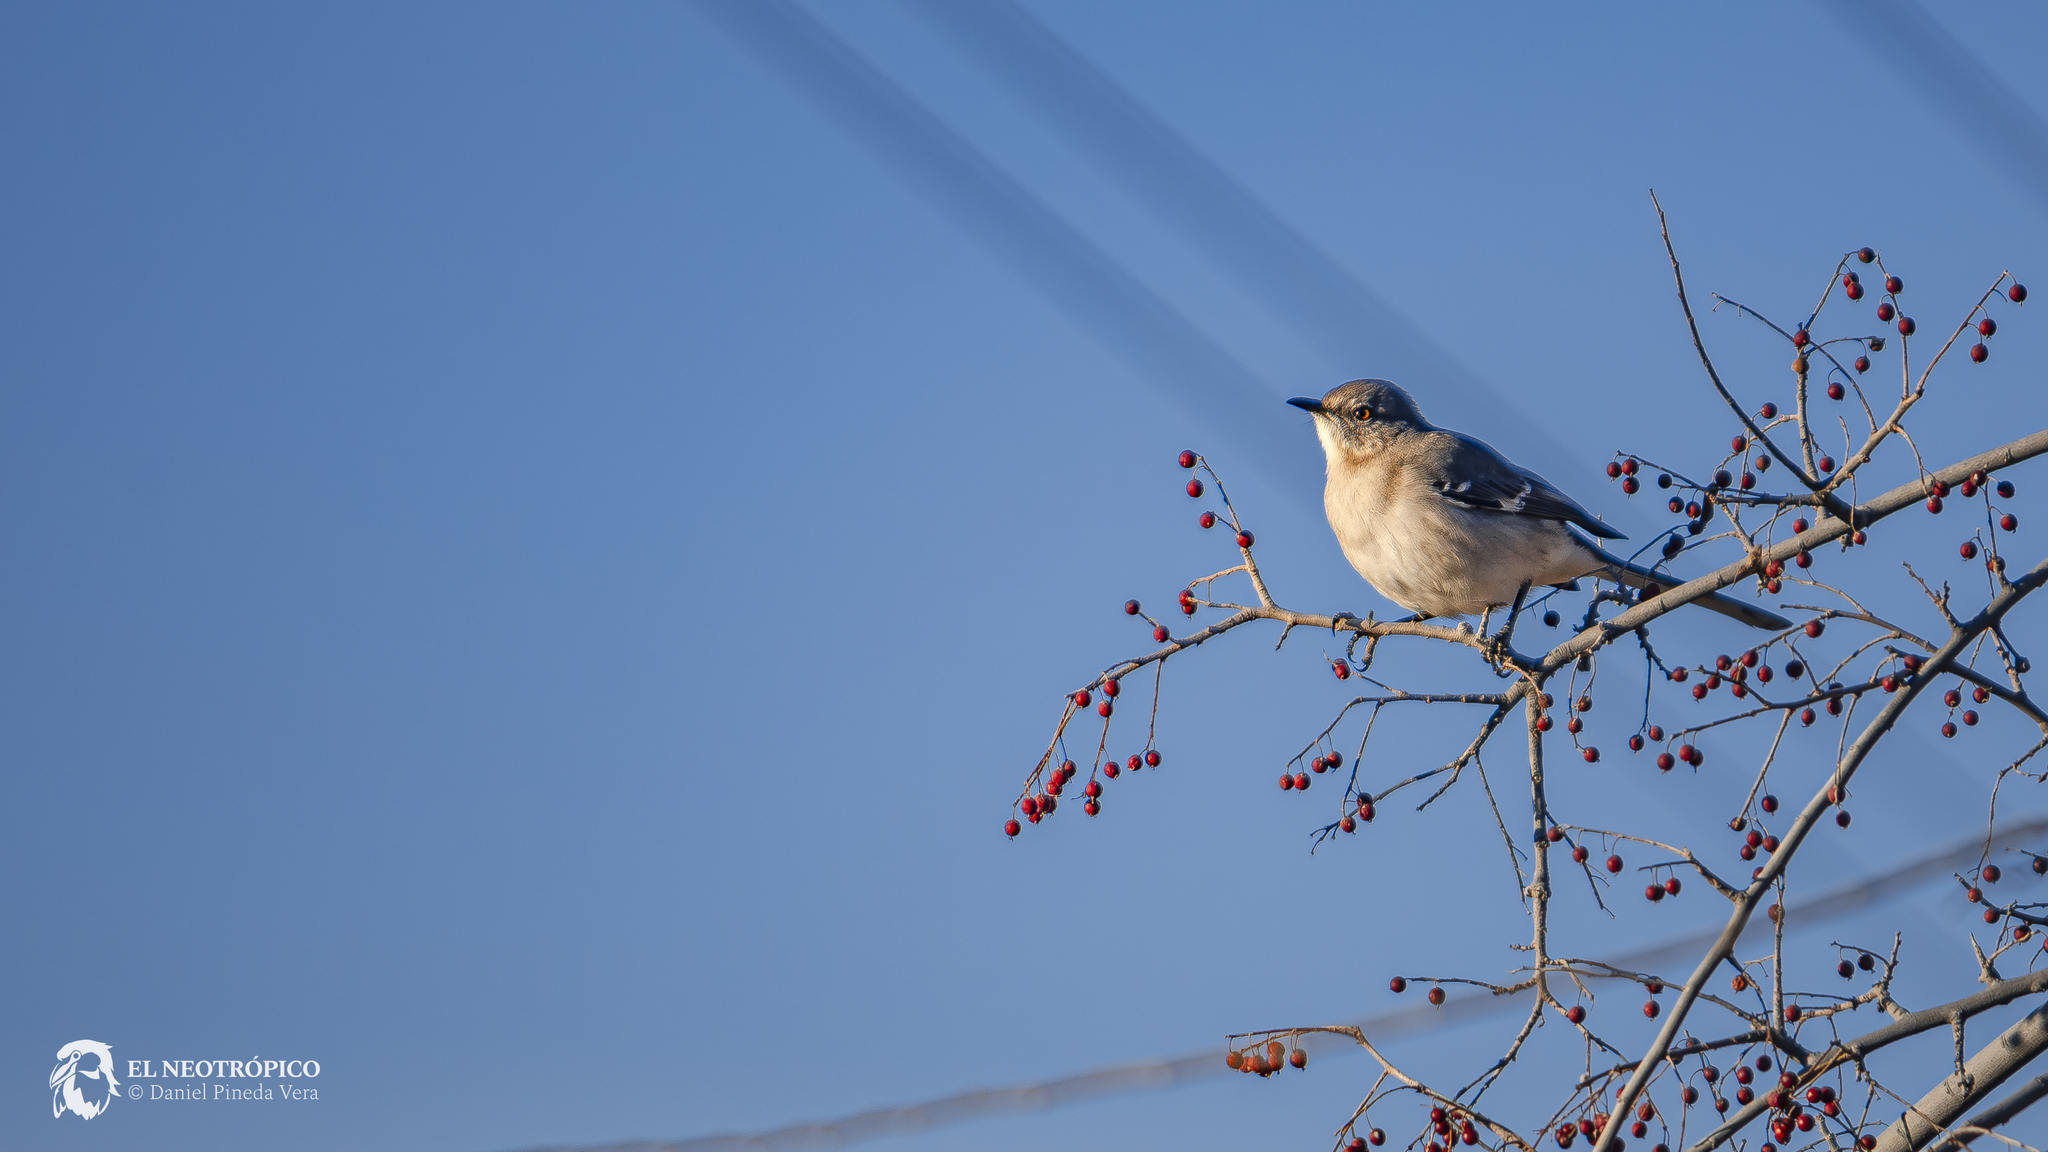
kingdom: Animalia
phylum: Chordata
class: Aves
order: Passeriformes
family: Mimidae
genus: Mimus
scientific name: Mimus polyglottos
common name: Northern mockingbird
